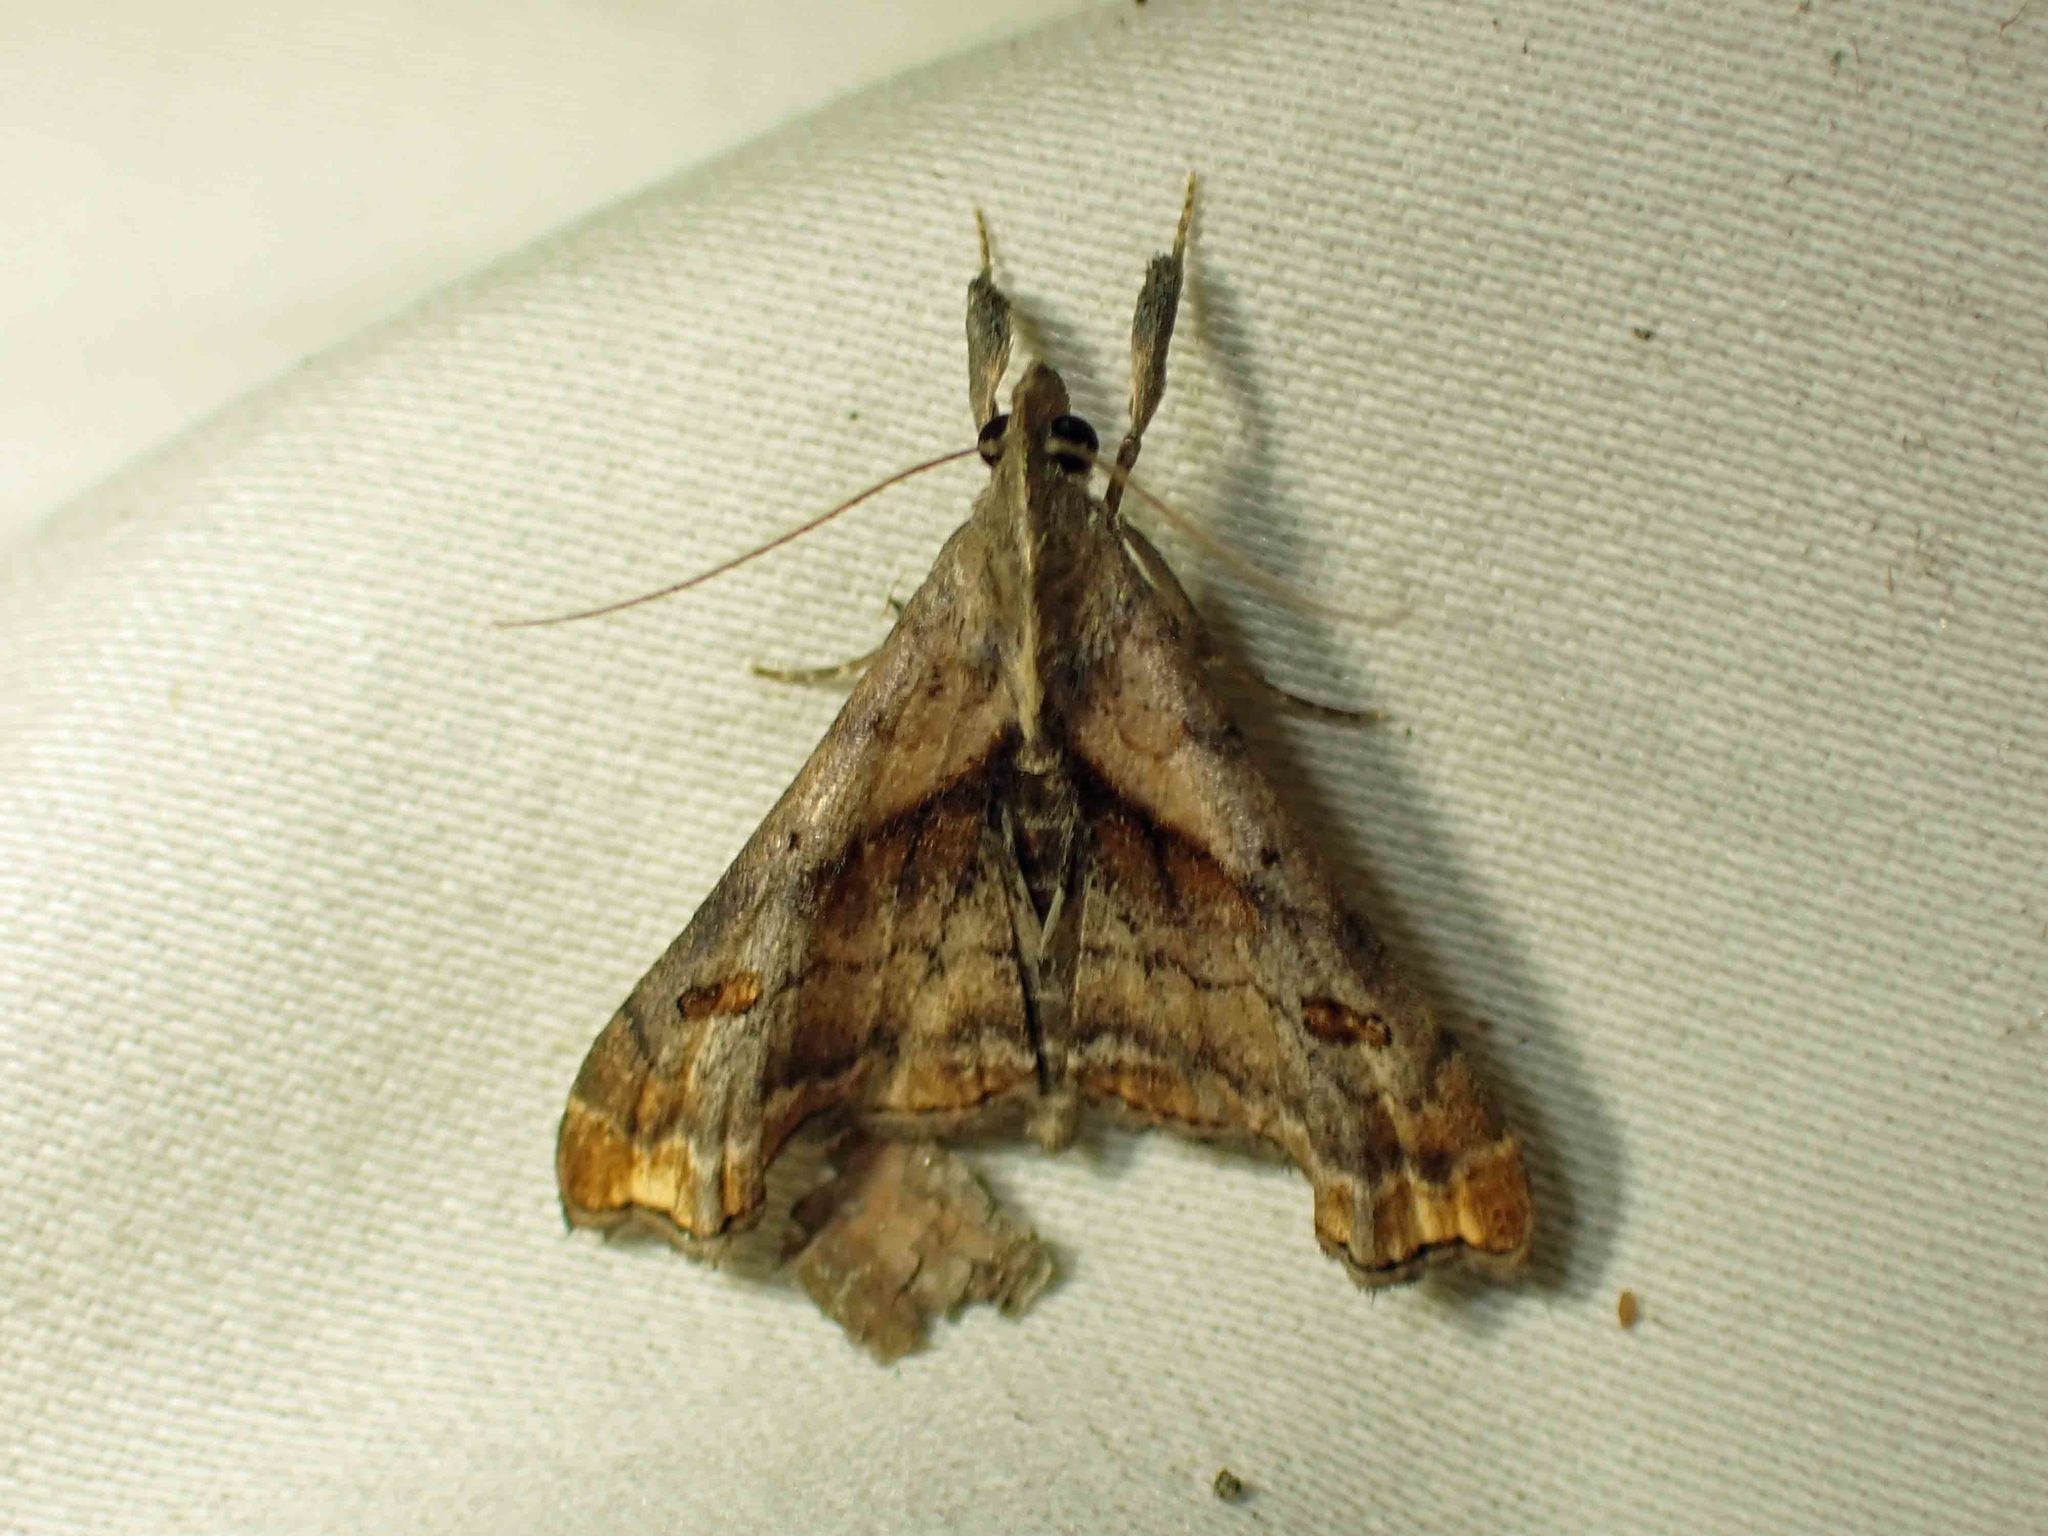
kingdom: Animalia
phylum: Arthropoda
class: Insecta
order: Lepidoptera
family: Erebidae
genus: Palthis
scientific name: Palthis angulalis
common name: Dark-spotted palthis moth
